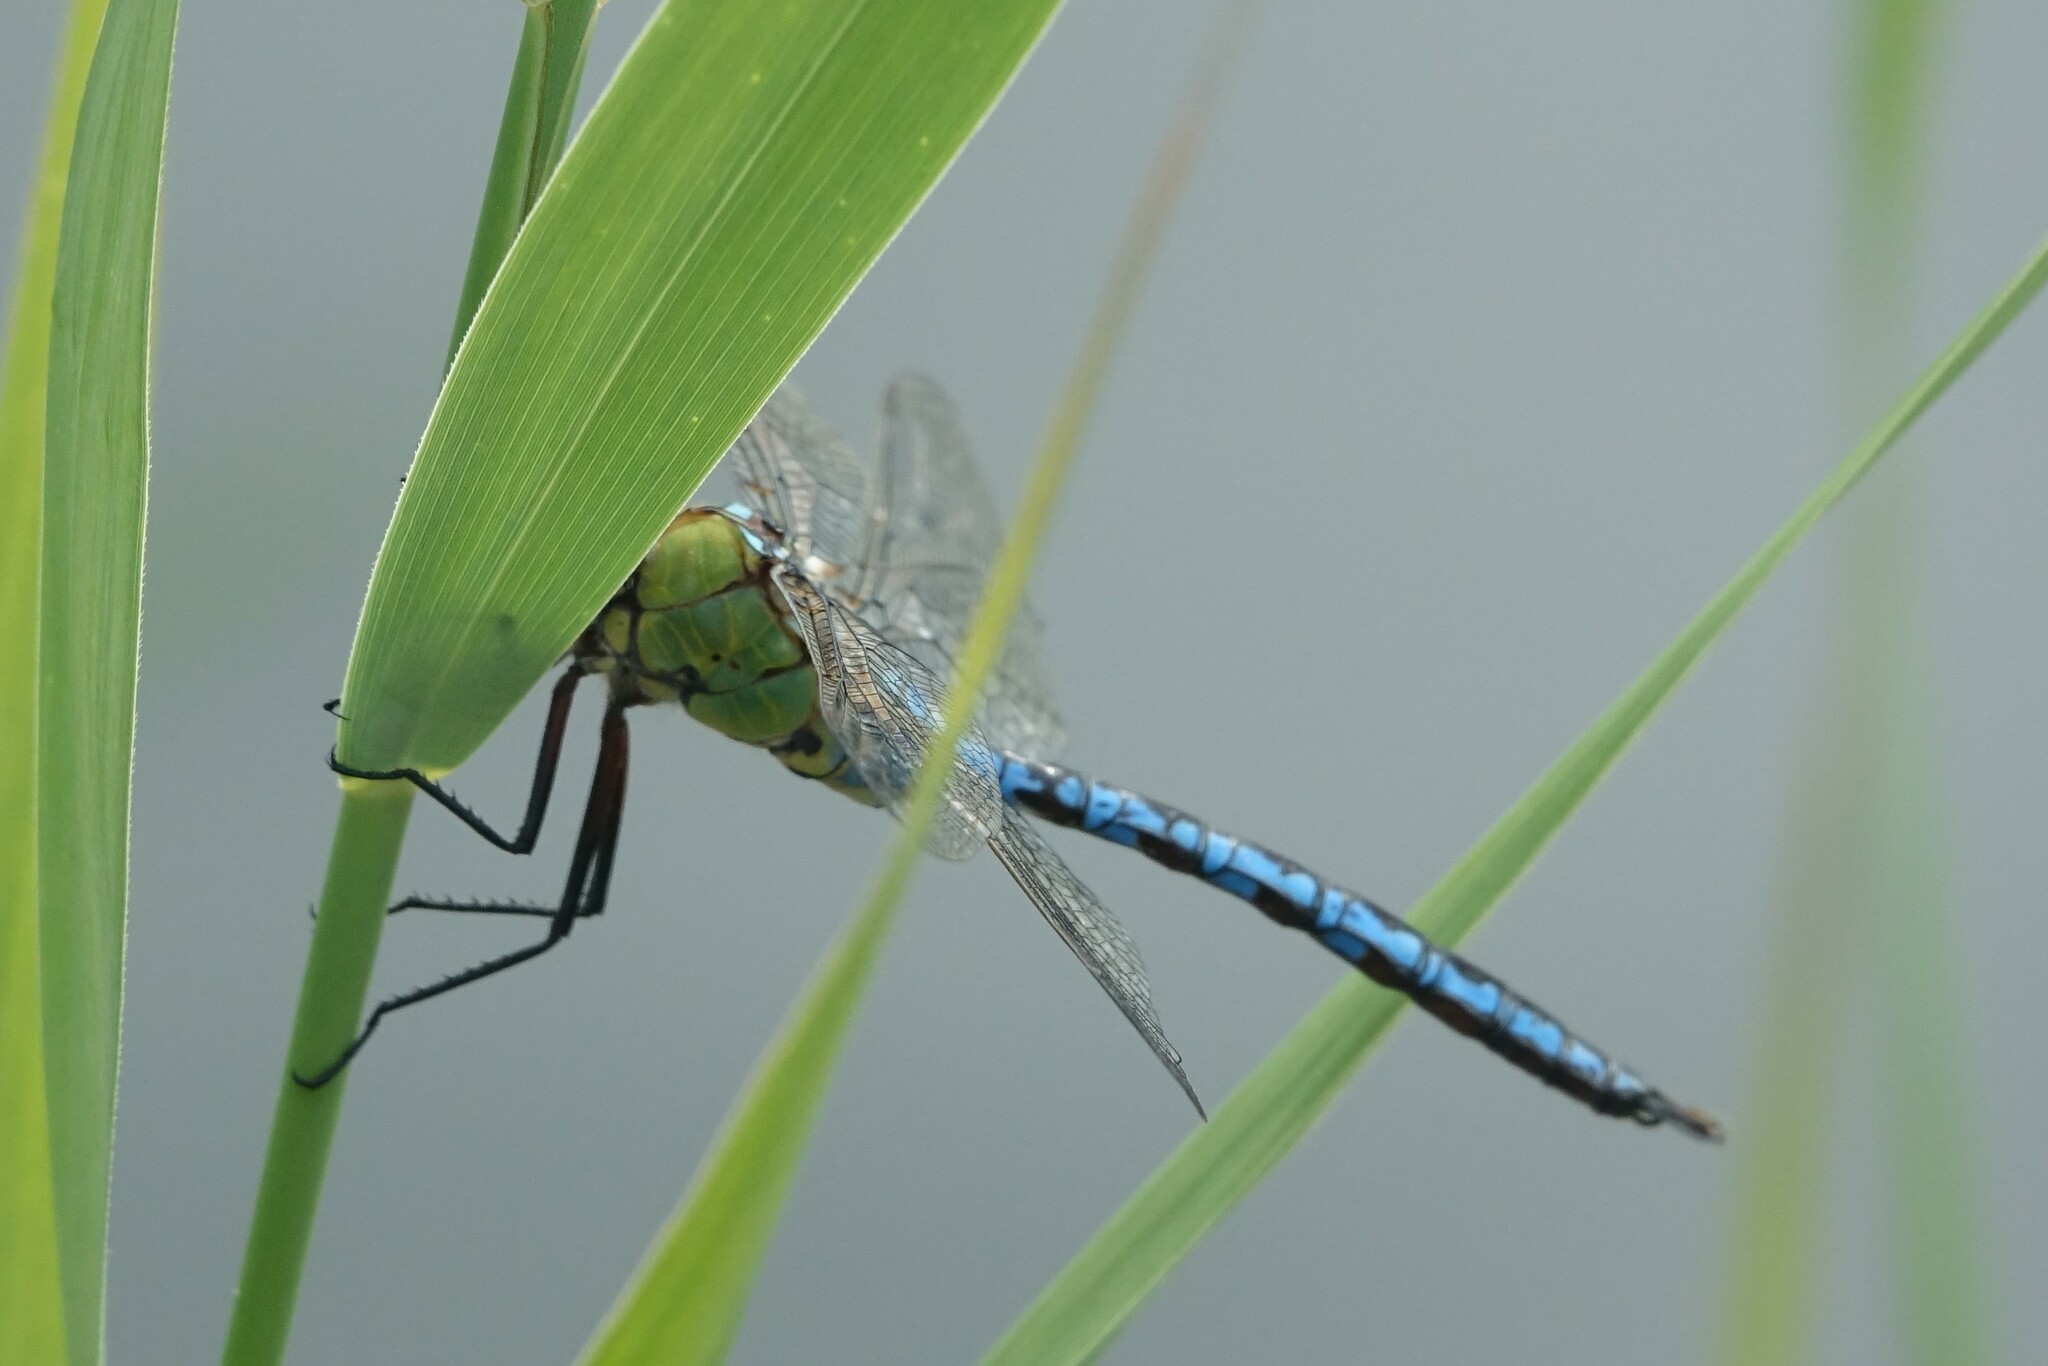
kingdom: Animalia
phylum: Arthropoda
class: Insecta
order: Odonata
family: Aeshnidae
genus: Anax
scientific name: Anax imperator
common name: Emperor dragonfly
